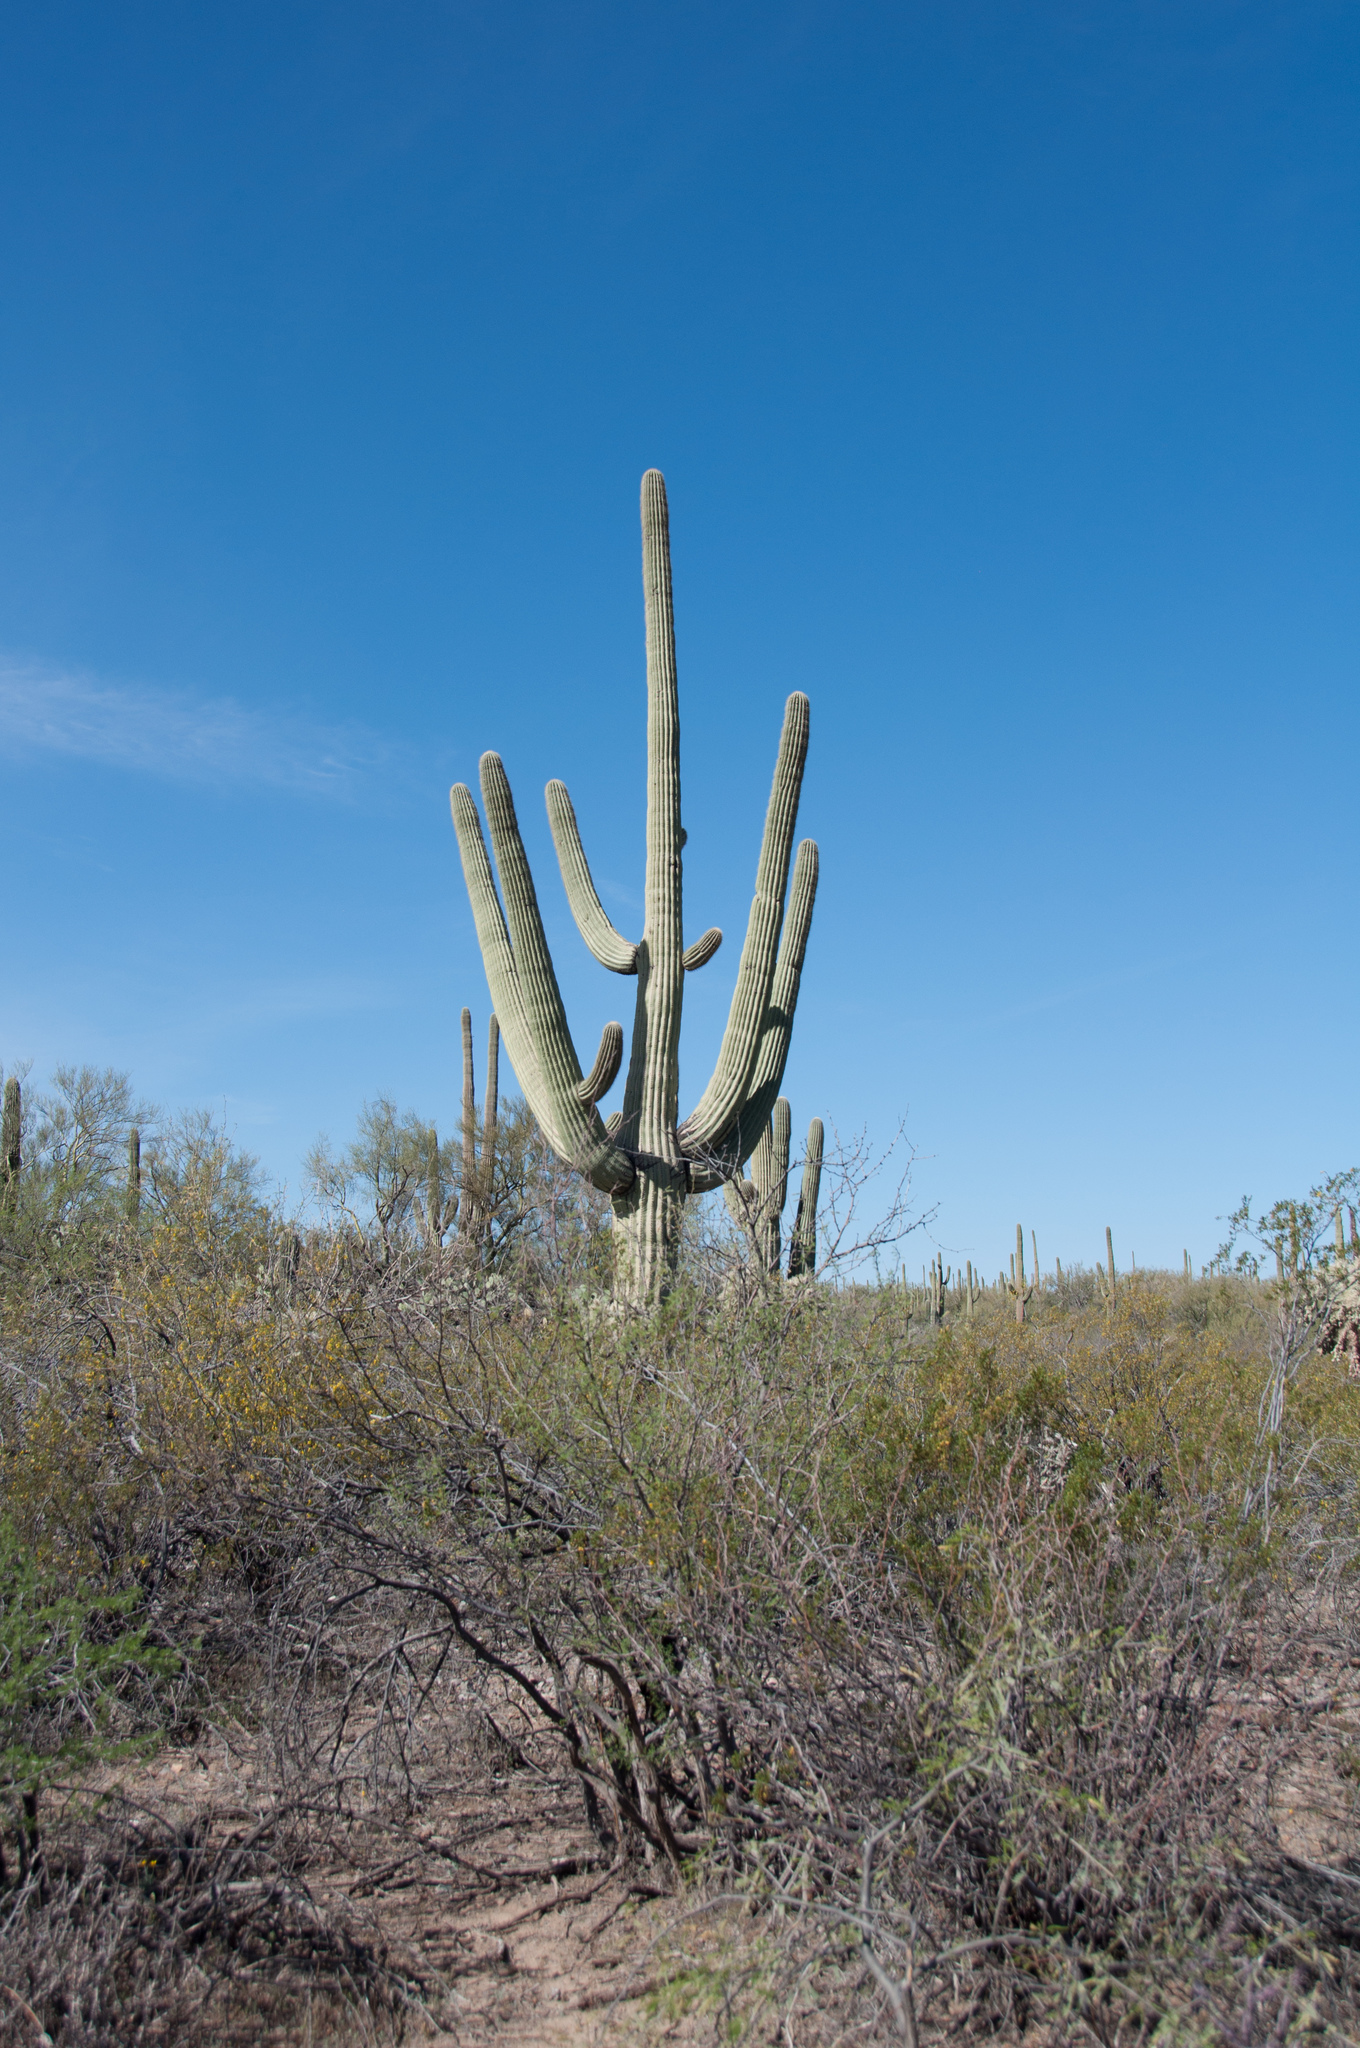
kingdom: Plantae
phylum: Tracheophyta
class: Magnoliopsida
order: Caryophyllales
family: Cactaceae
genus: Carnegiea
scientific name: Carnegiea gigantea
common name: Saguaro
